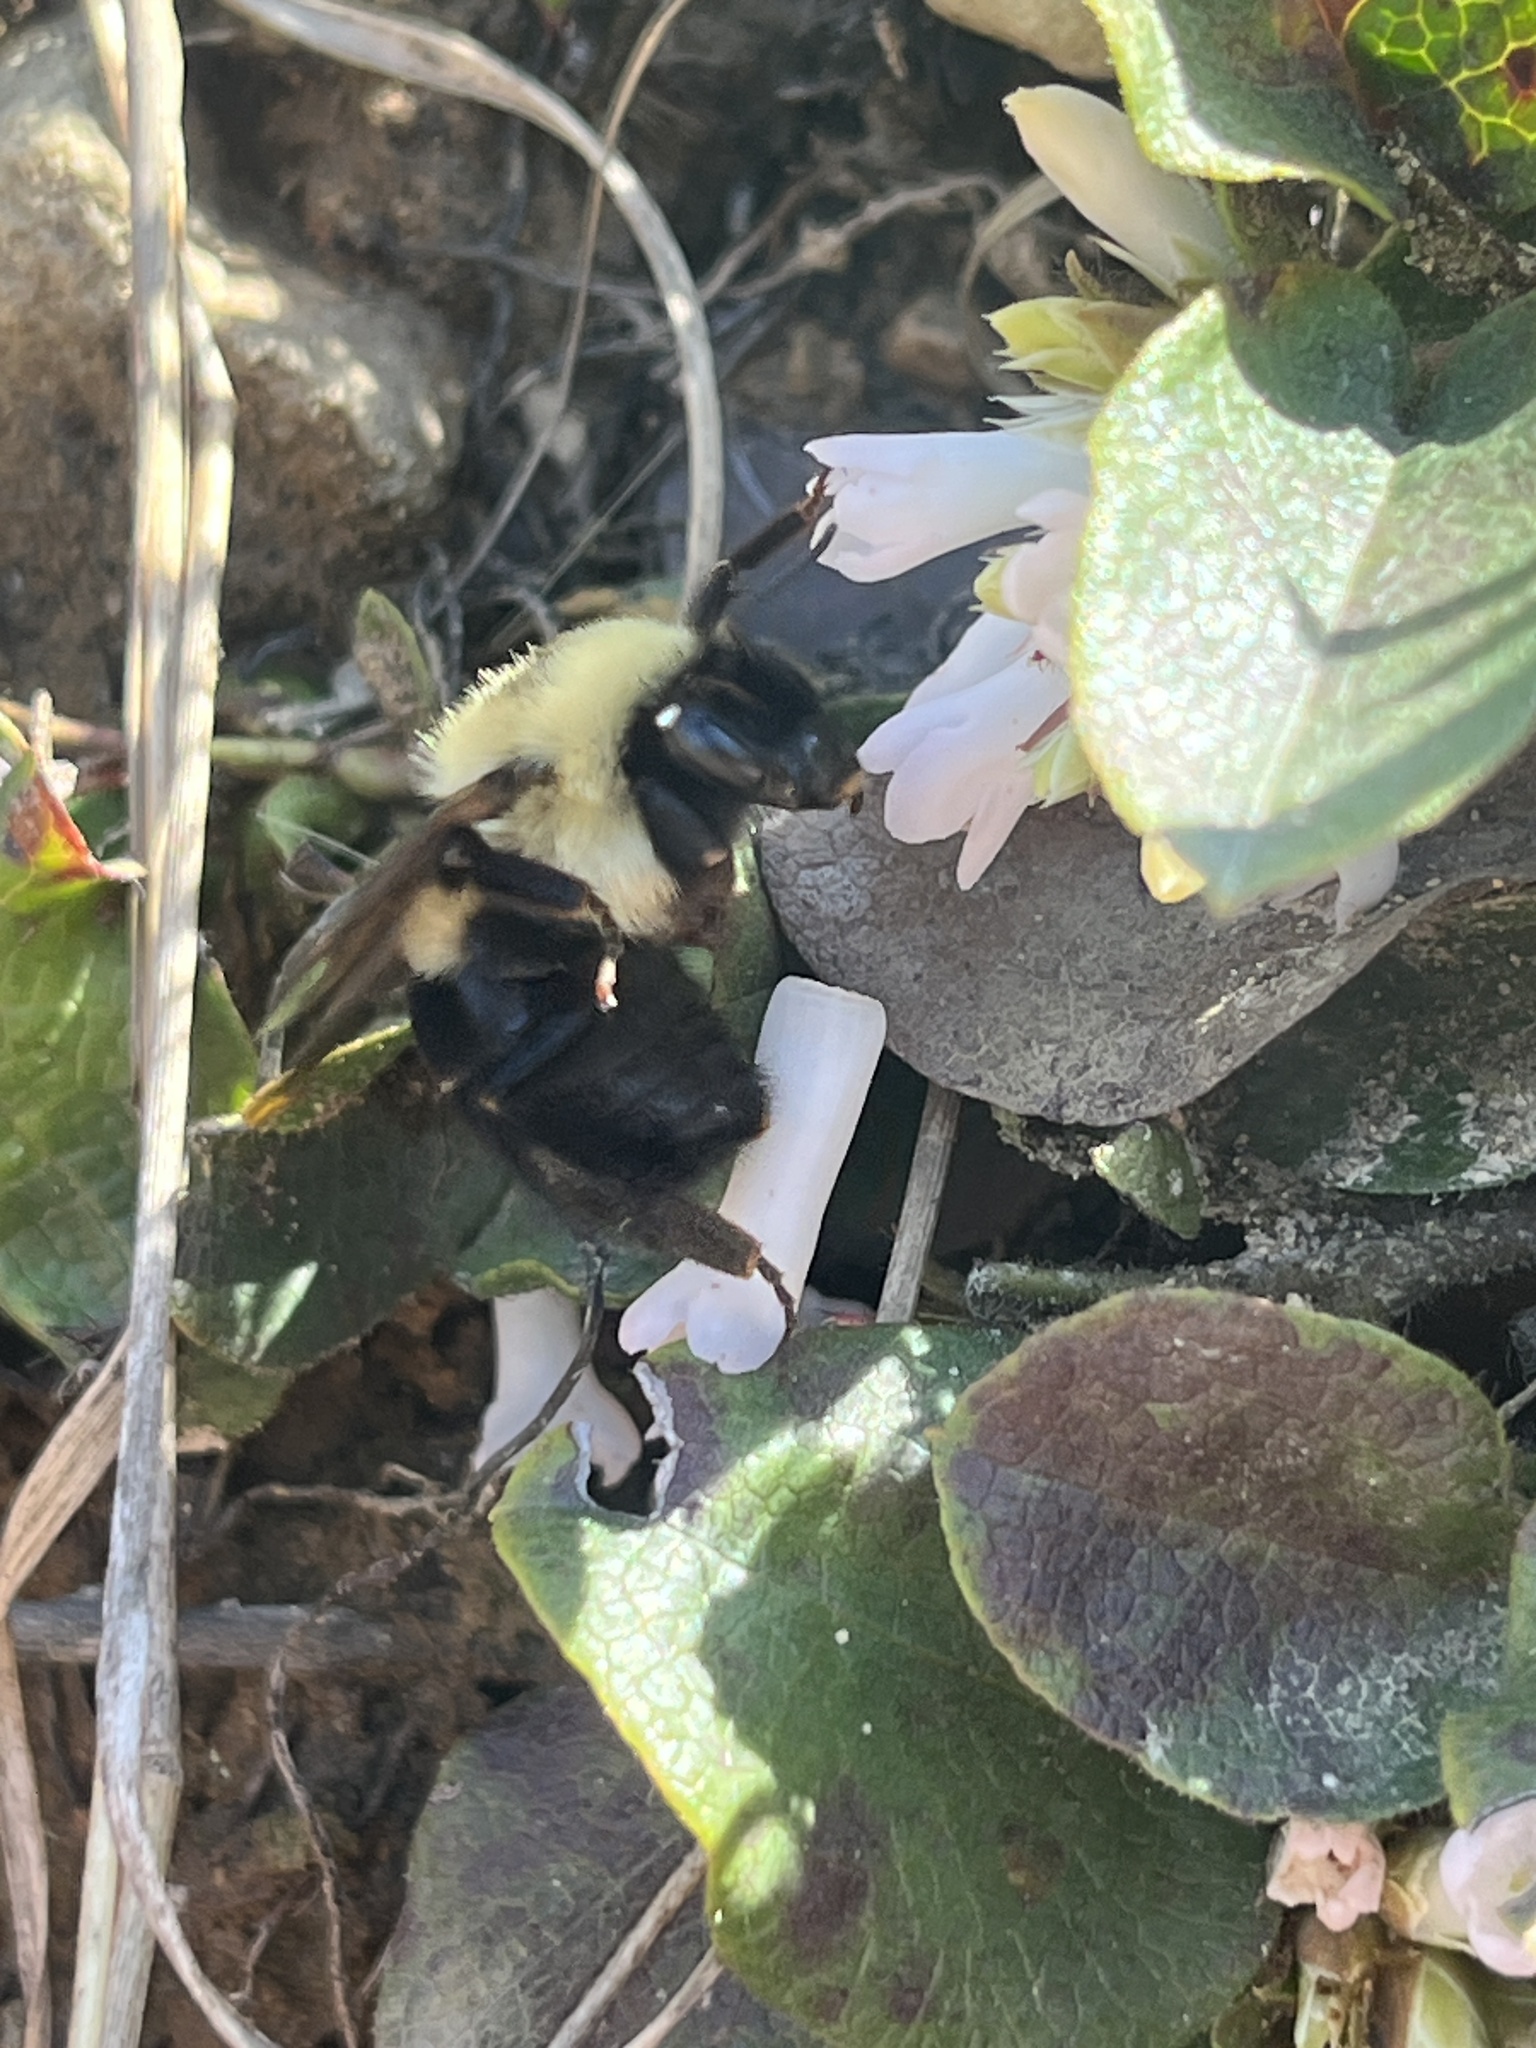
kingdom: Animalia
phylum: Arthropoda
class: Insecta
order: Hymenoptera
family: Apidae
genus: Bombus
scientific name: Bombus bimaculatus
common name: Two-spotted bumble bee
